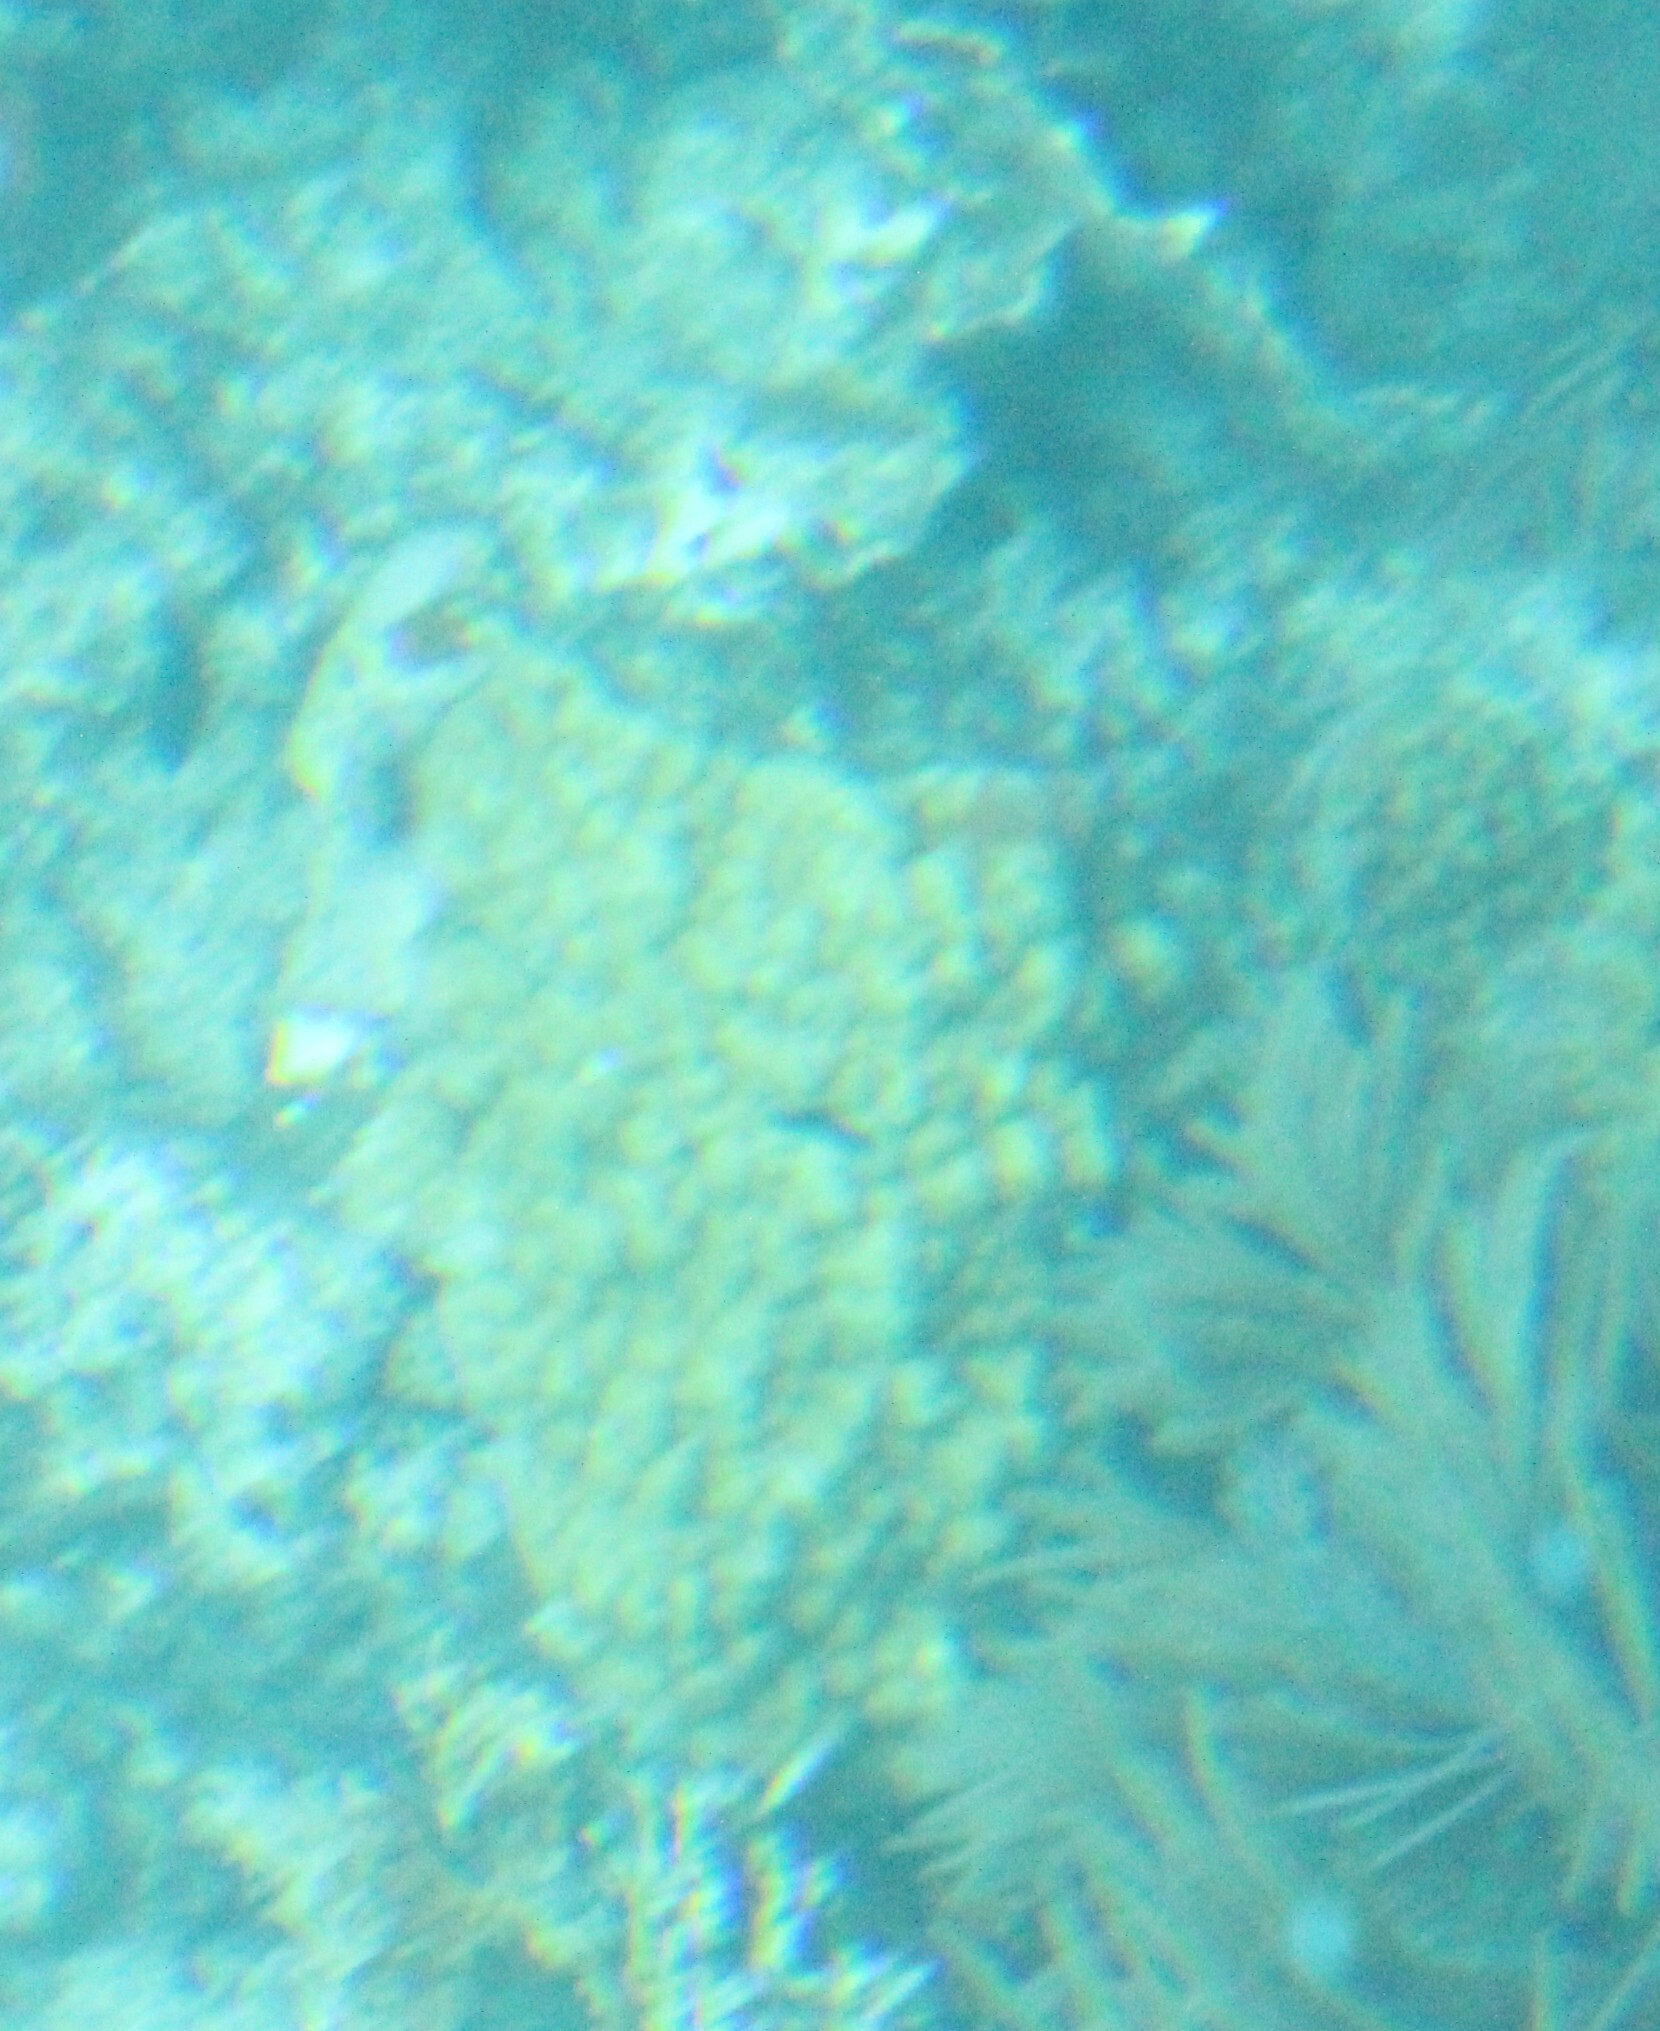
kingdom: Animalia
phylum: Cnidaria
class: Anthozoa
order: Scleractinia
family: Poritidae
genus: Porites
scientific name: Porites astreoides
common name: Mustard hill coral
